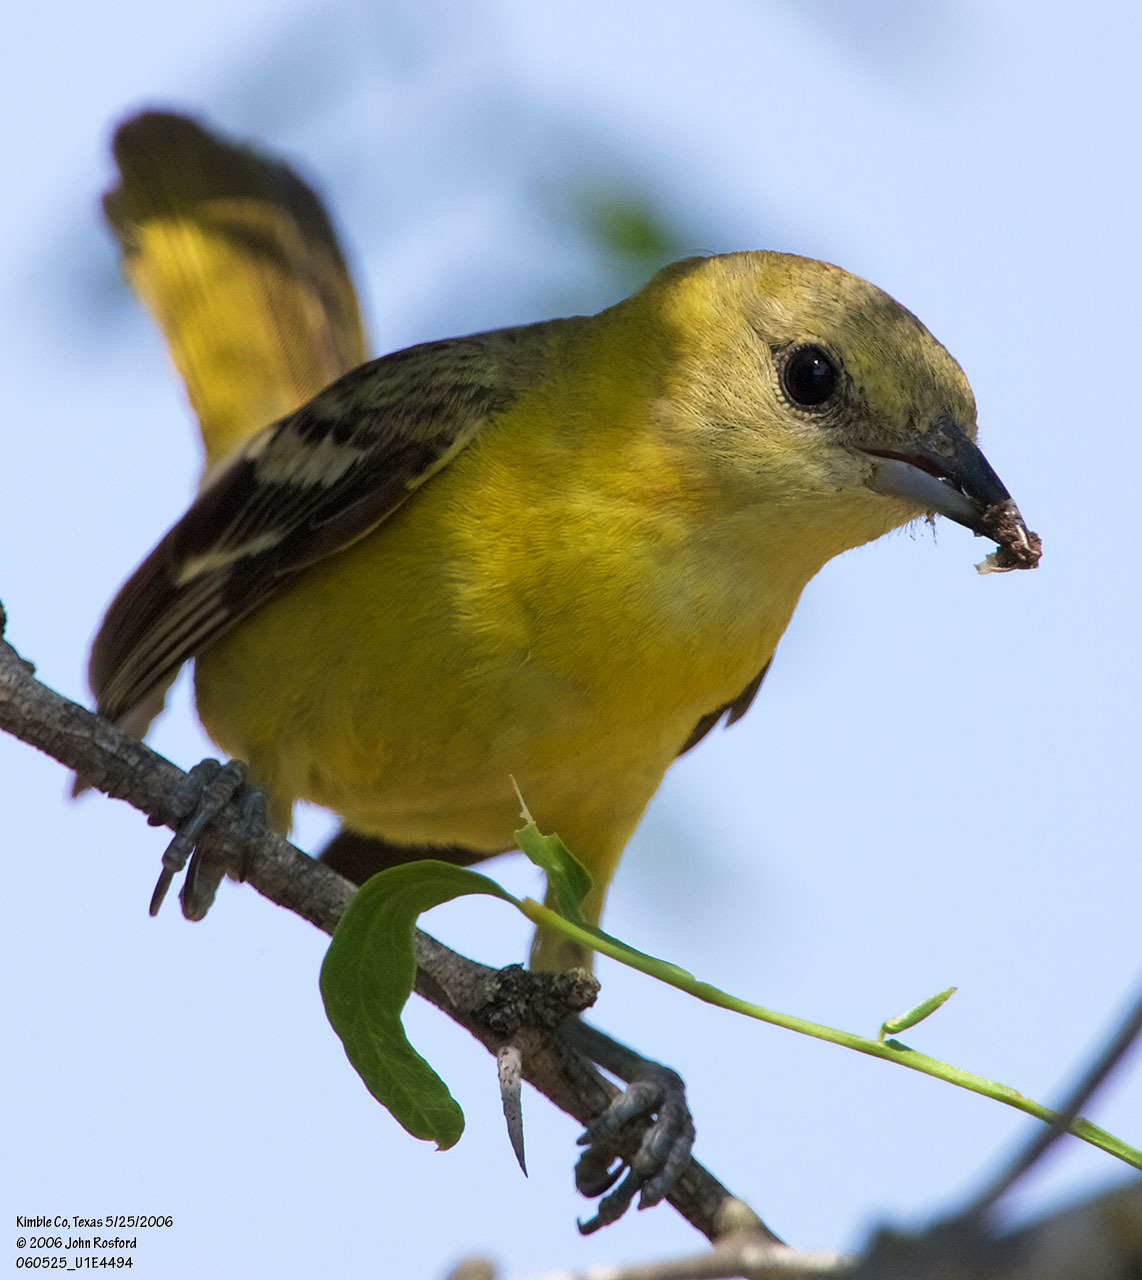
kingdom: Animalia
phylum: Chordata
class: Aves
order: Passeriformes
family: Icteridae
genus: Icterus
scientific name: Icterus spurius
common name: Orchard oriole
